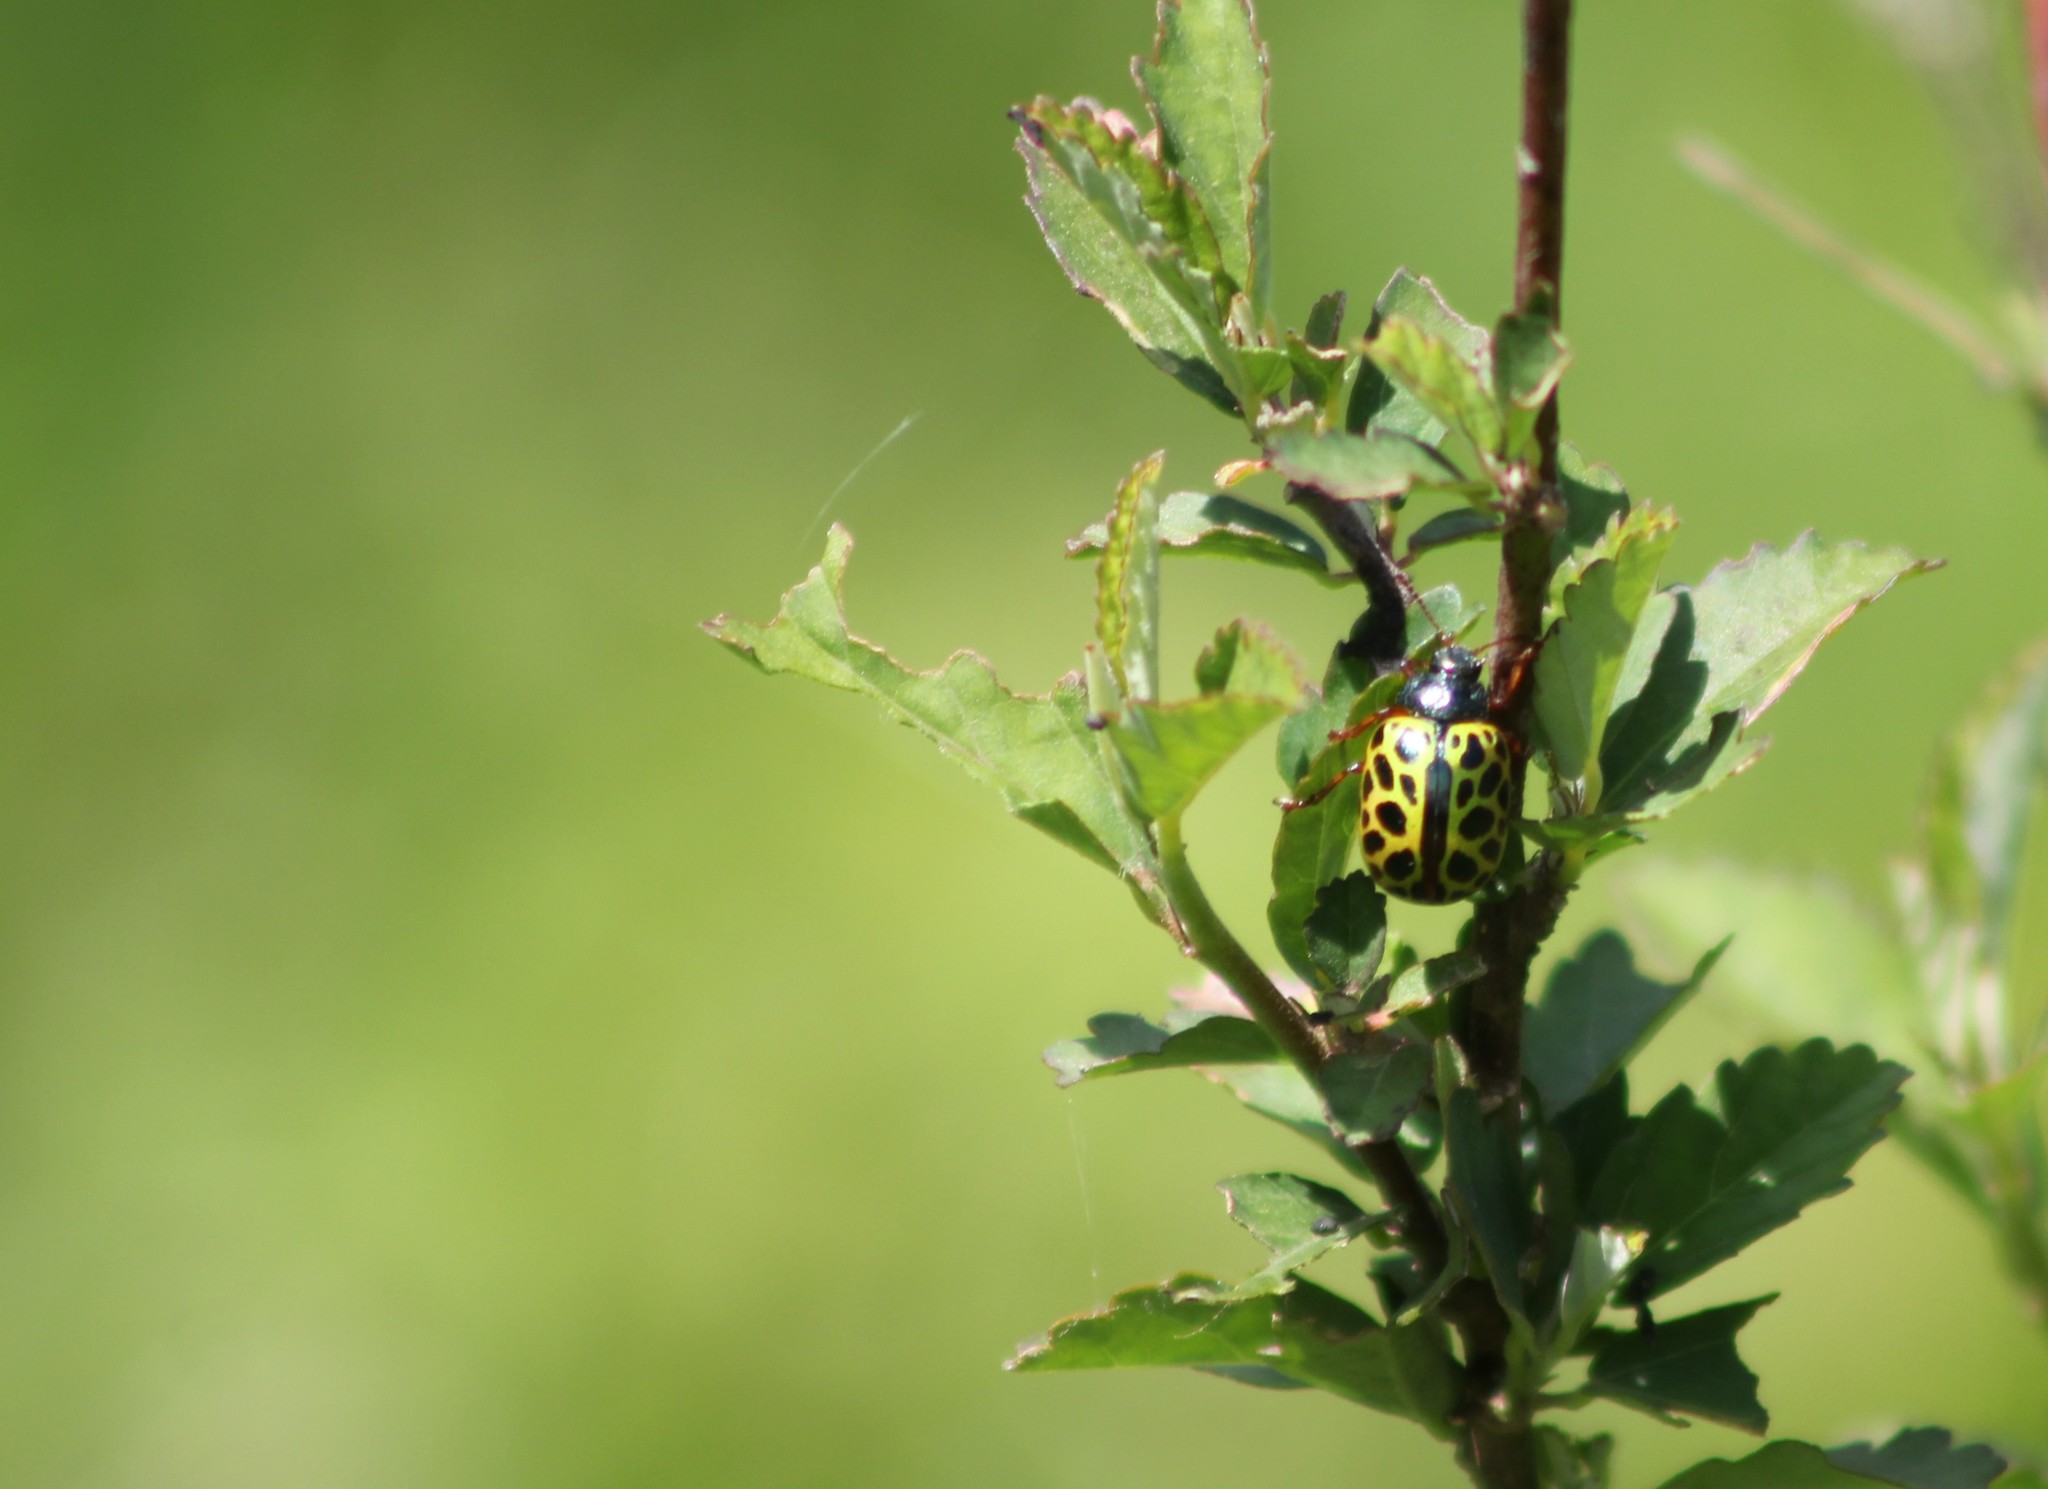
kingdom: Animalia
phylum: Arthropoda
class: Insecta
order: Coleoptera
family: Chrysomelidae
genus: Calligrapha
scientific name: Calligrapha polyspila
